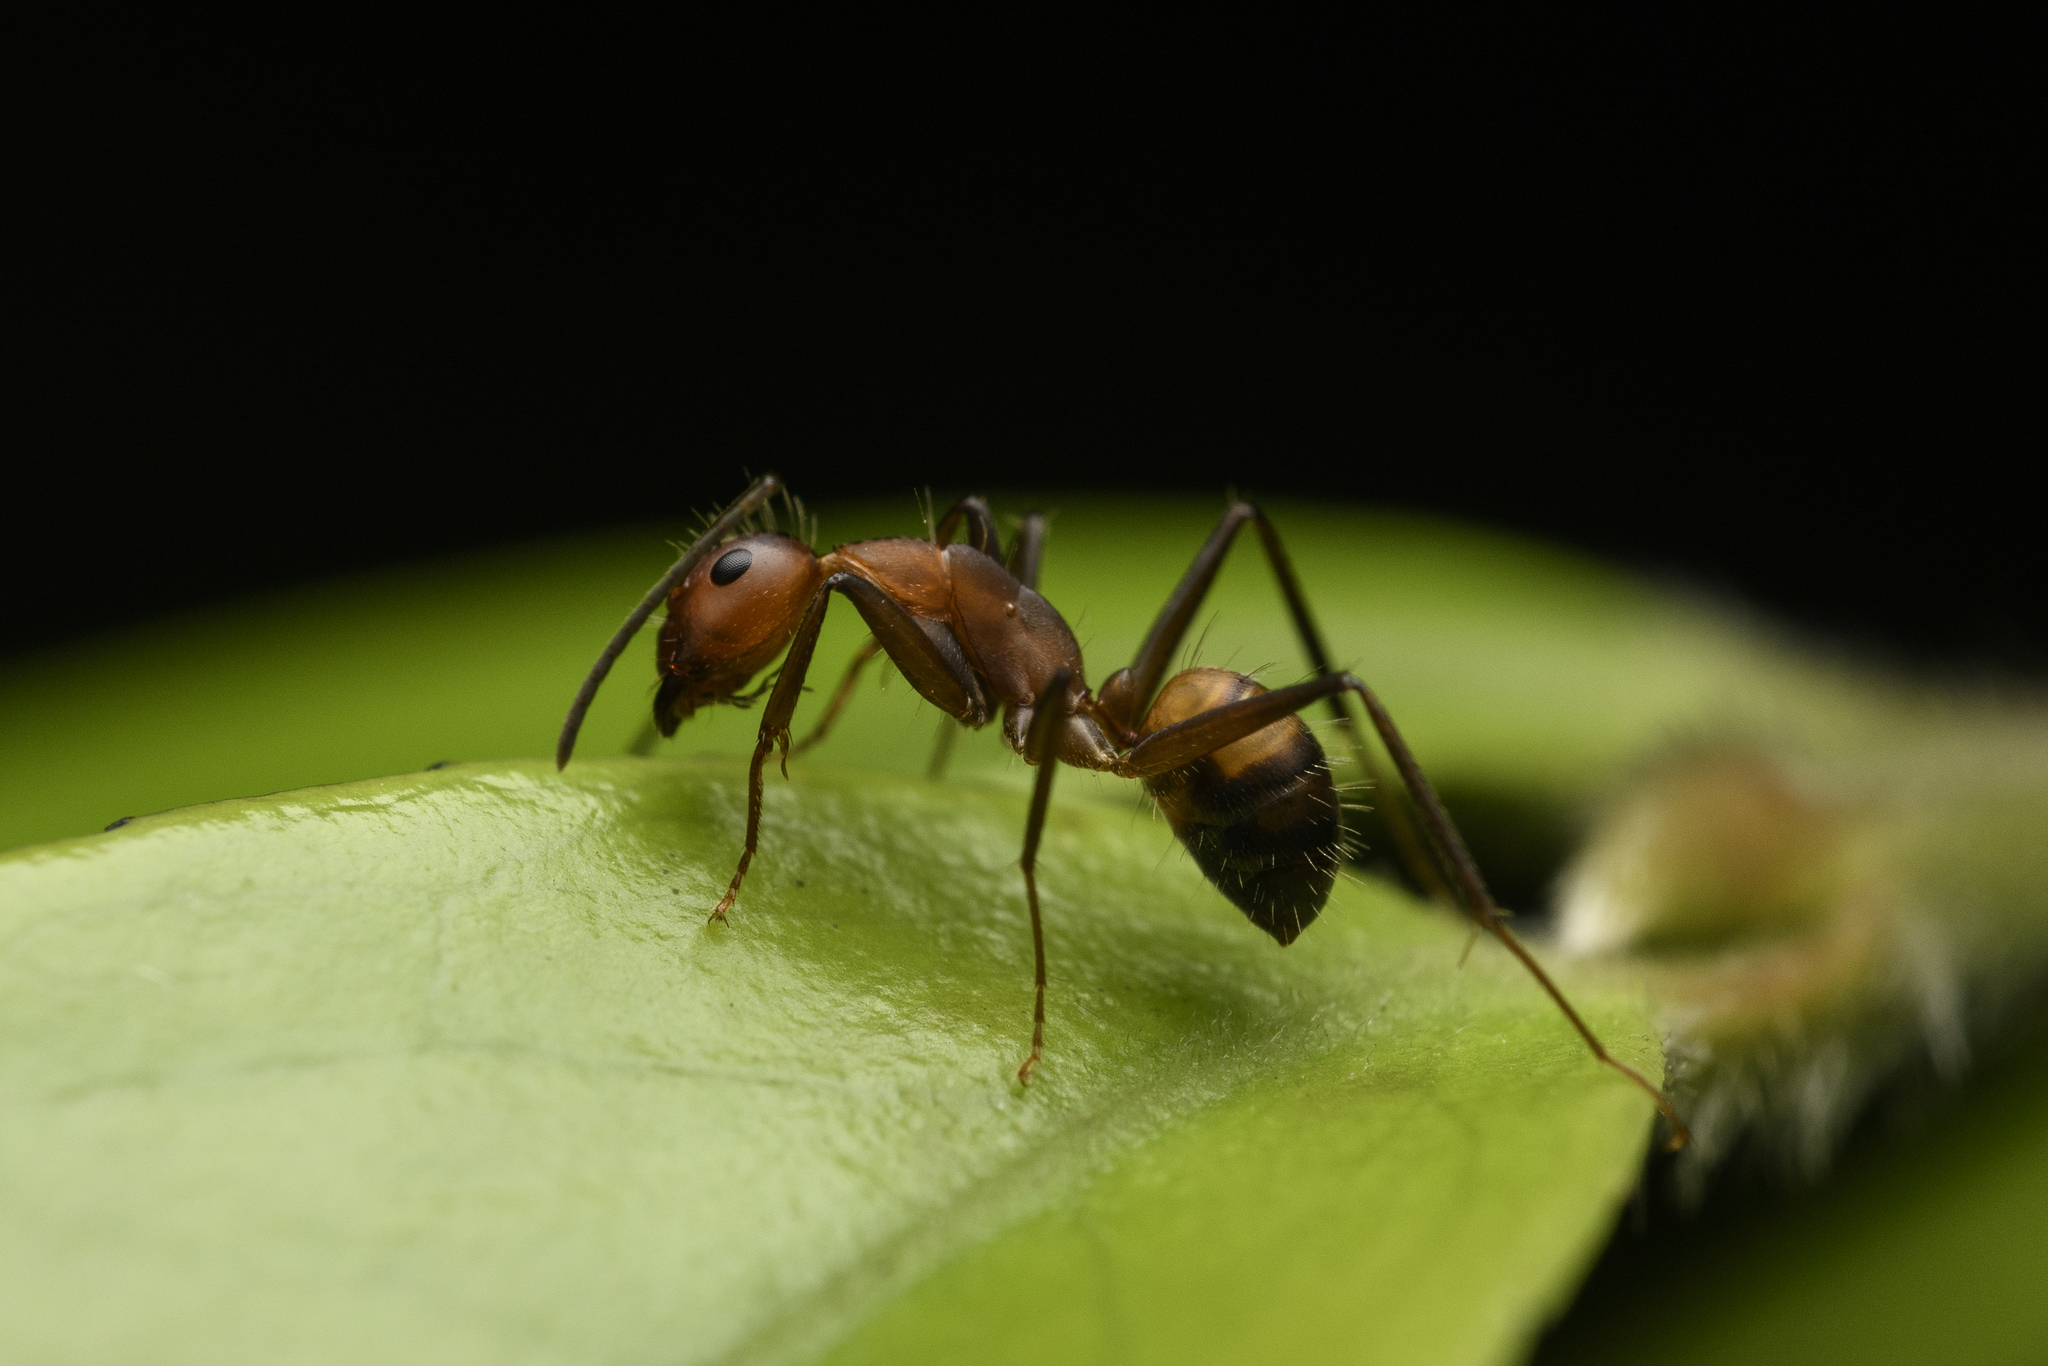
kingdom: Animalia
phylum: Arthropoda
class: Insecta
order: Hymenoptera
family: Formicidae
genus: Camponotus
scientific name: Camponotus nicobarensis
